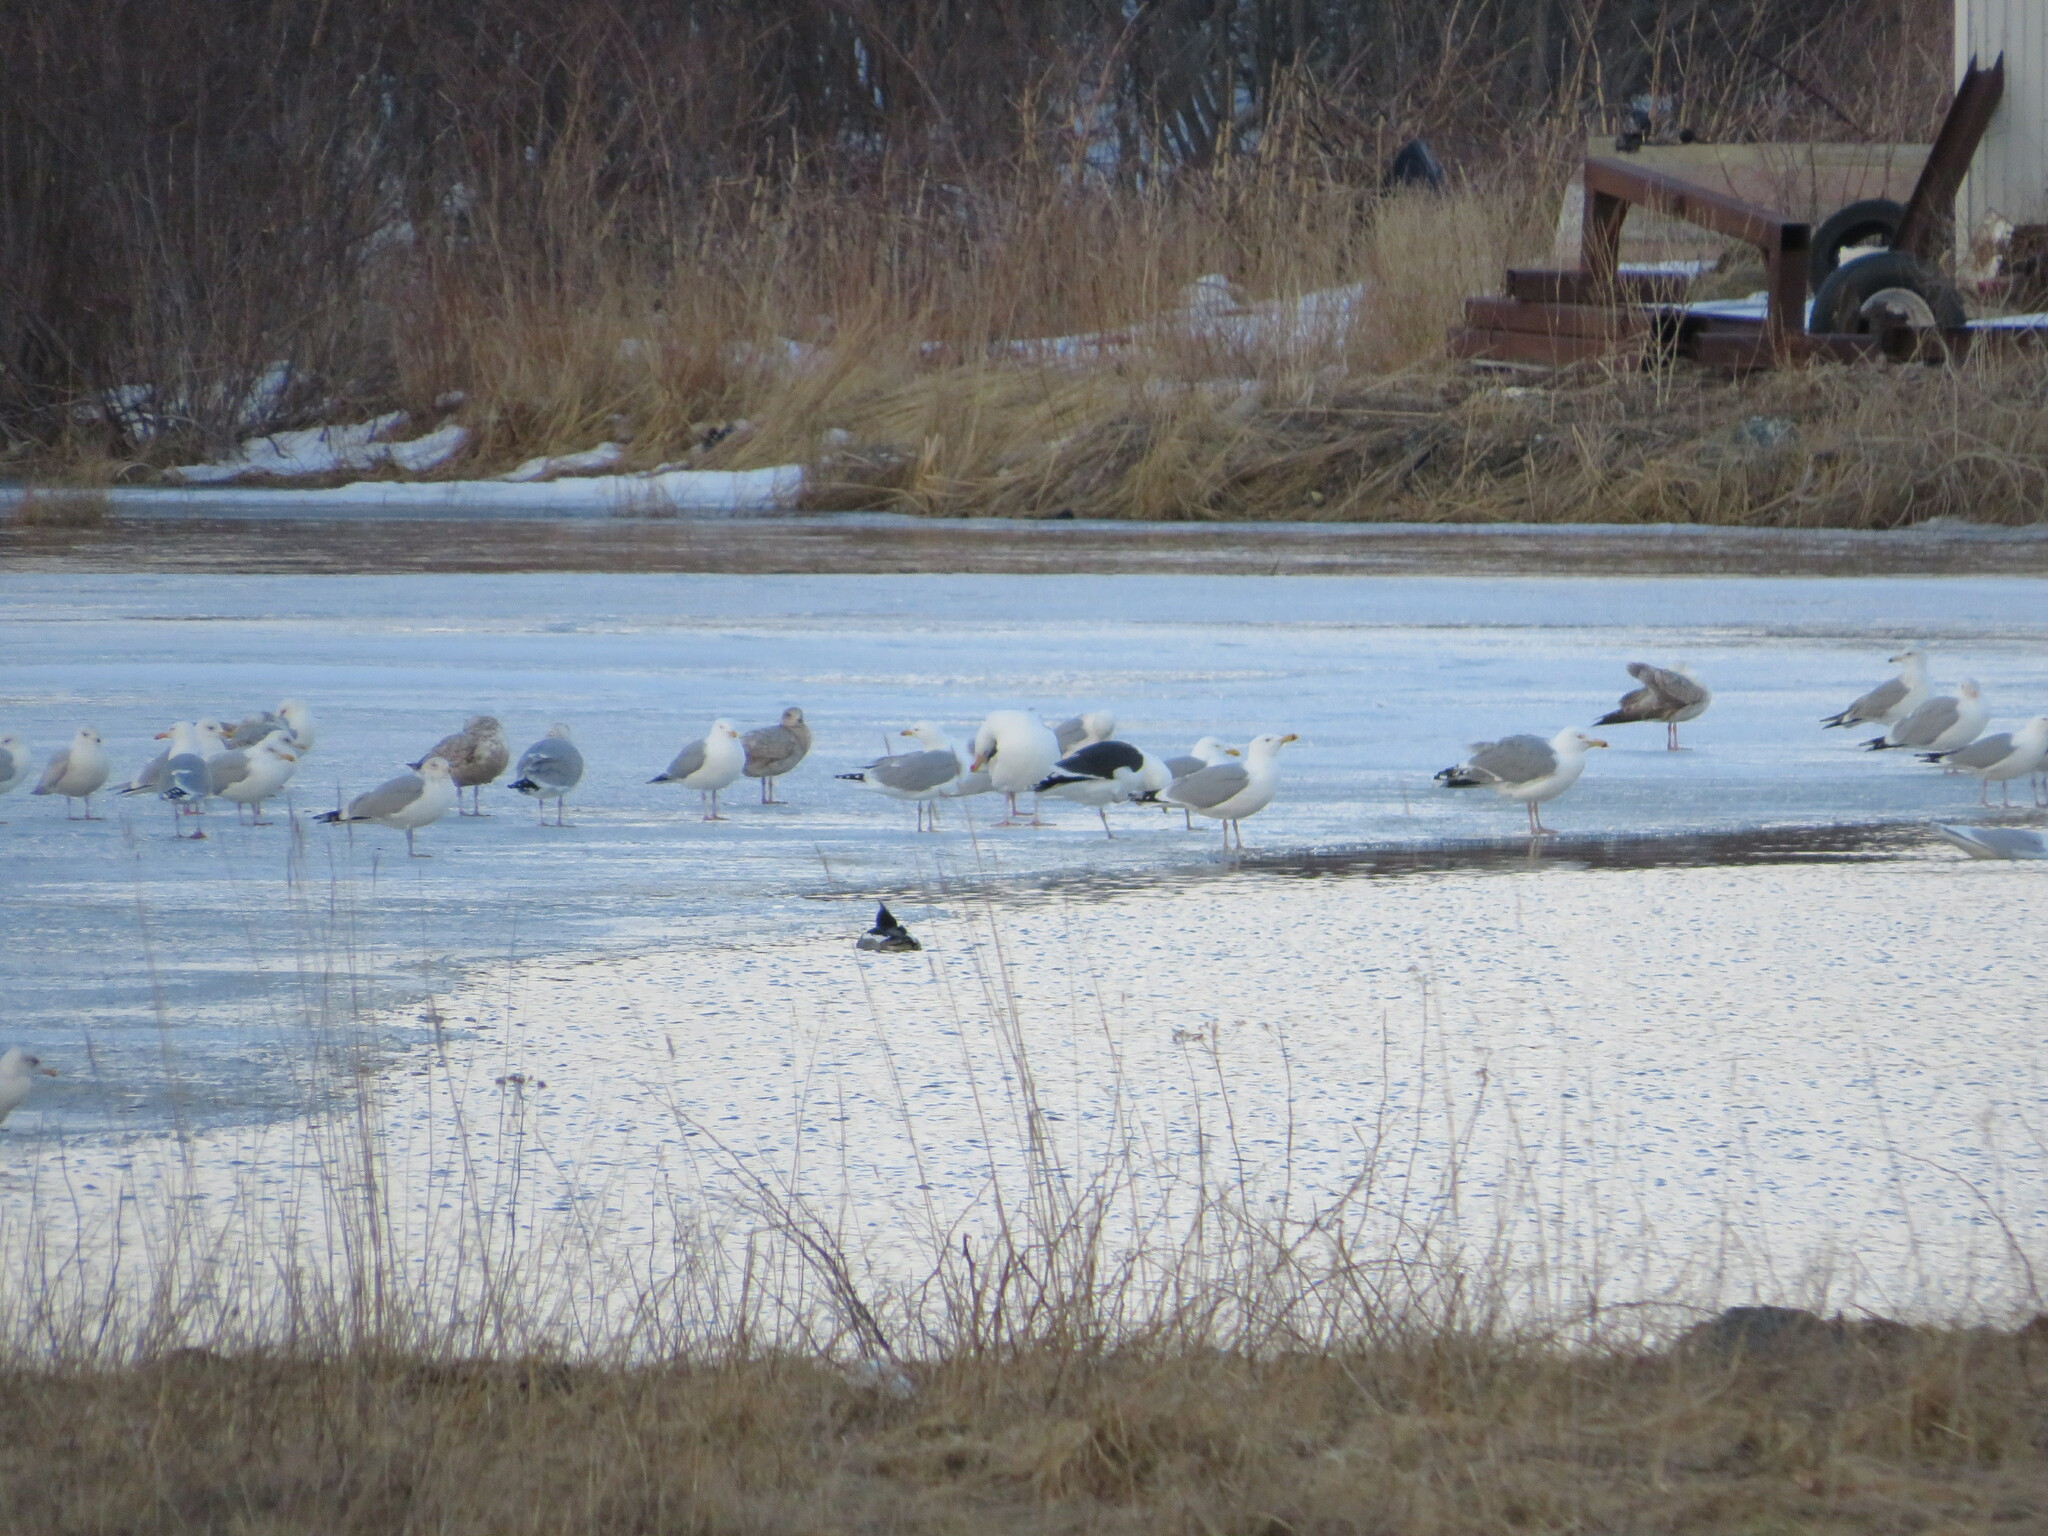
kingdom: Animalia
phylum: Chordata
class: Aves
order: Anseriformes
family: Anatidae
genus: Mergus
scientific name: Mergus serrator
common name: Red-breasted merganser
